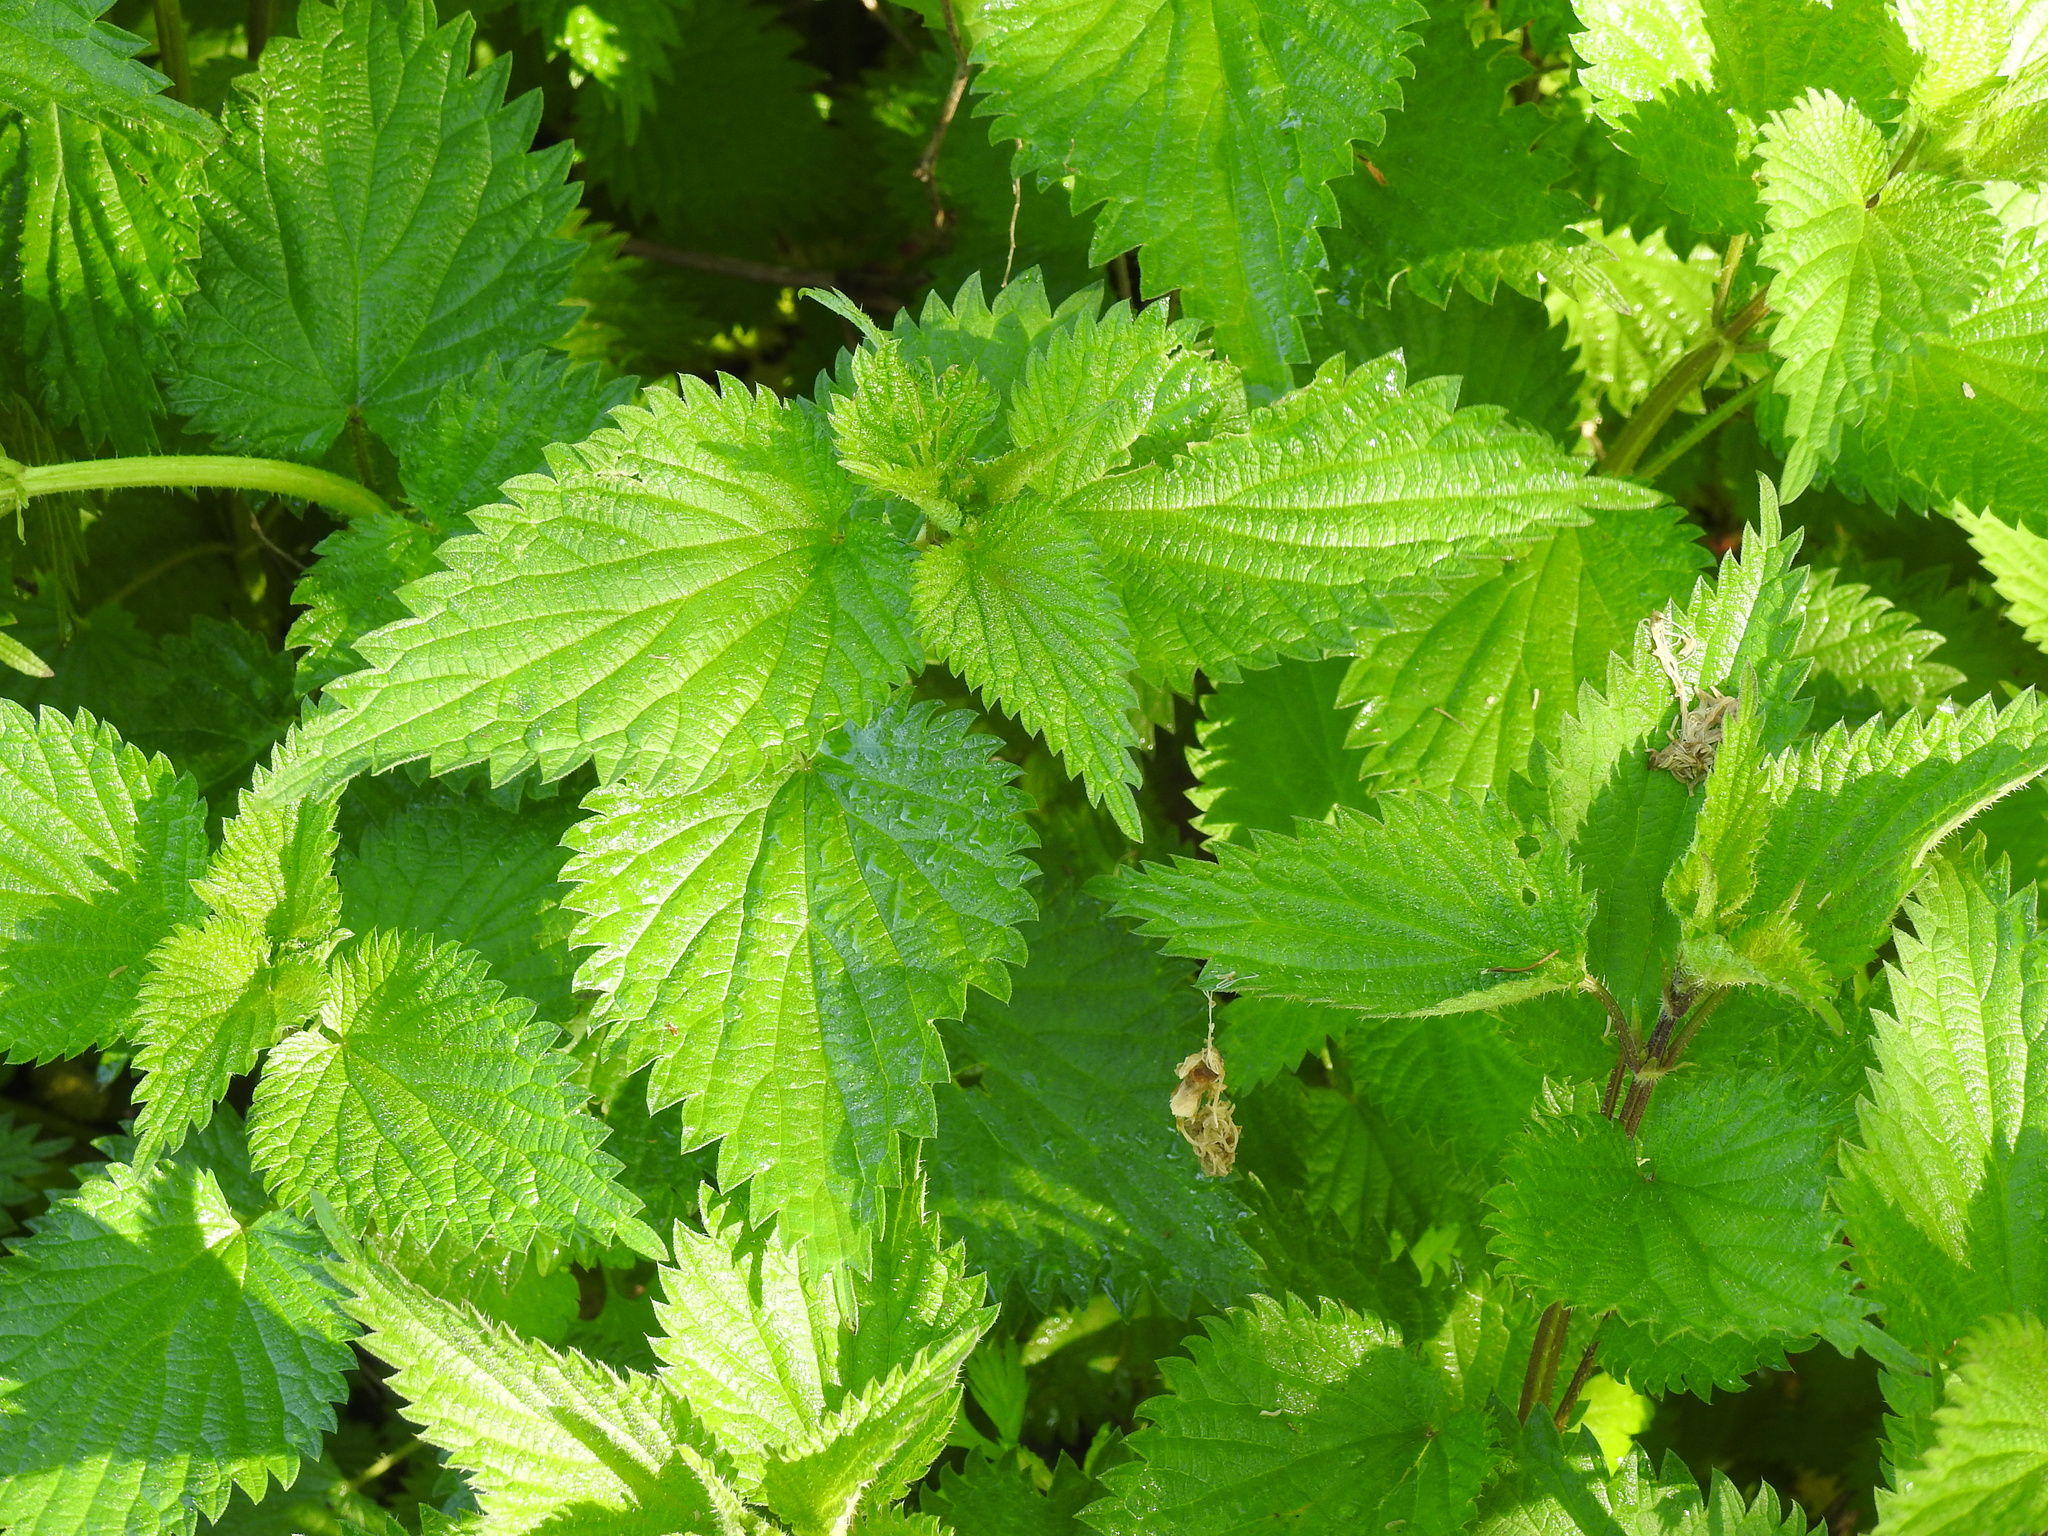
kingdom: Plantae
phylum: Tracheophyta
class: Magnoliopsida
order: Rosales
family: Urticaceae
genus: Urtica
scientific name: Urtica dioica
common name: Common nettle
